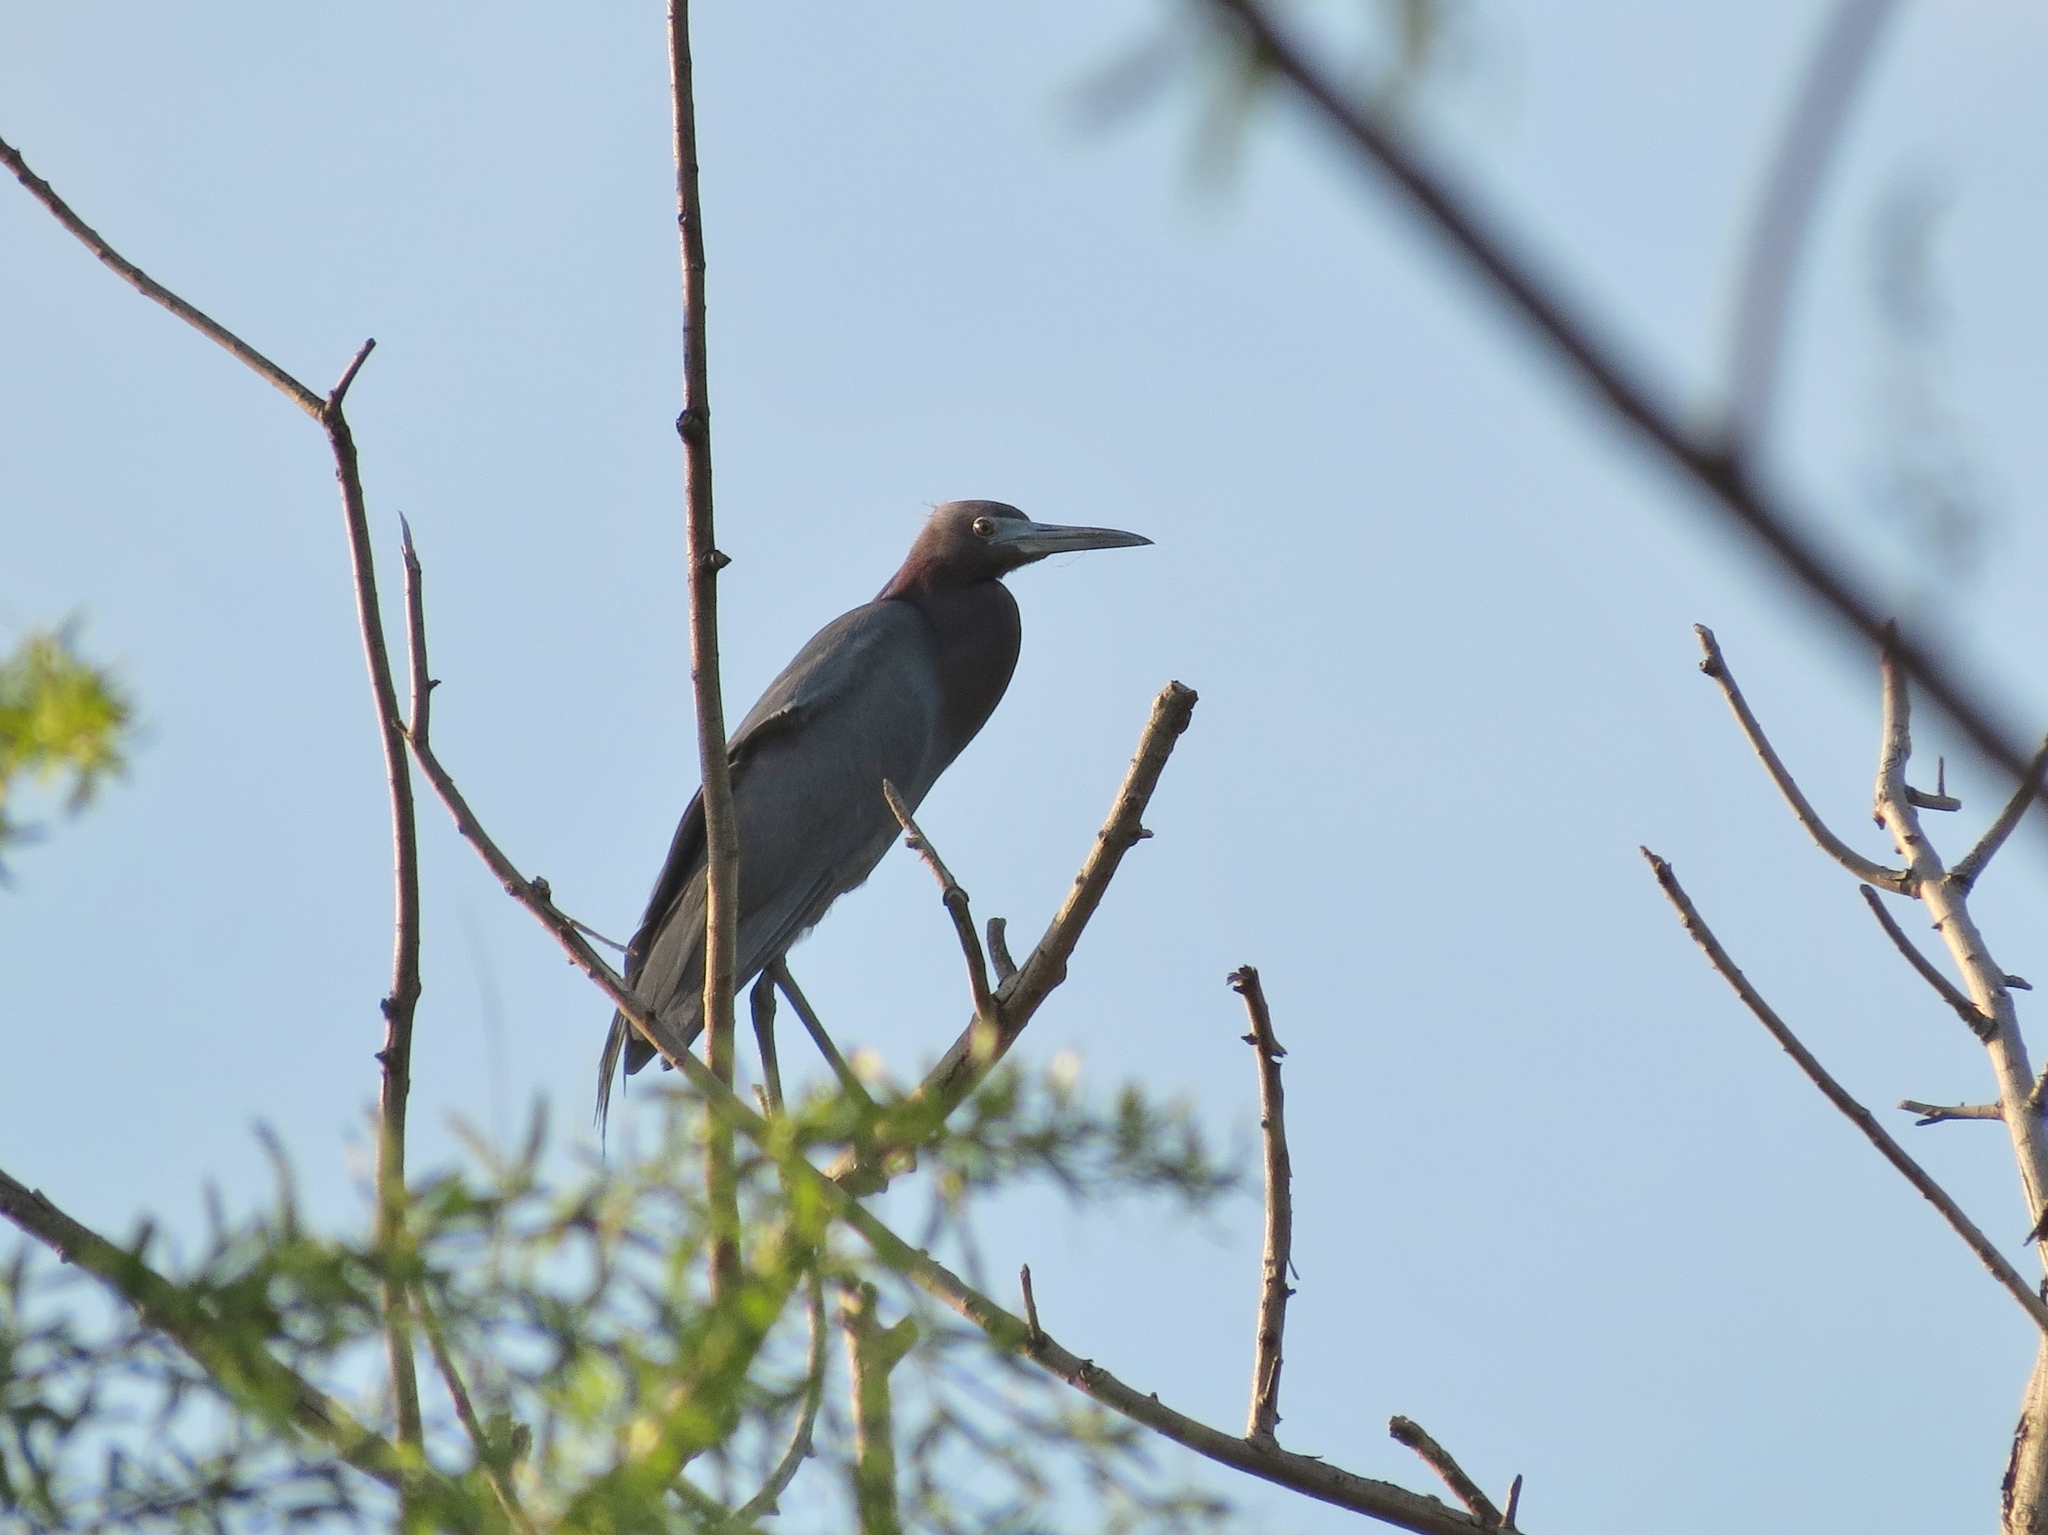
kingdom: Animalia
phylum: Chordata
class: Aves
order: Pelecaniformes
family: Ardeidae
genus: Egretta
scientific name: Egretta caerulea
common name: Little blue heron
